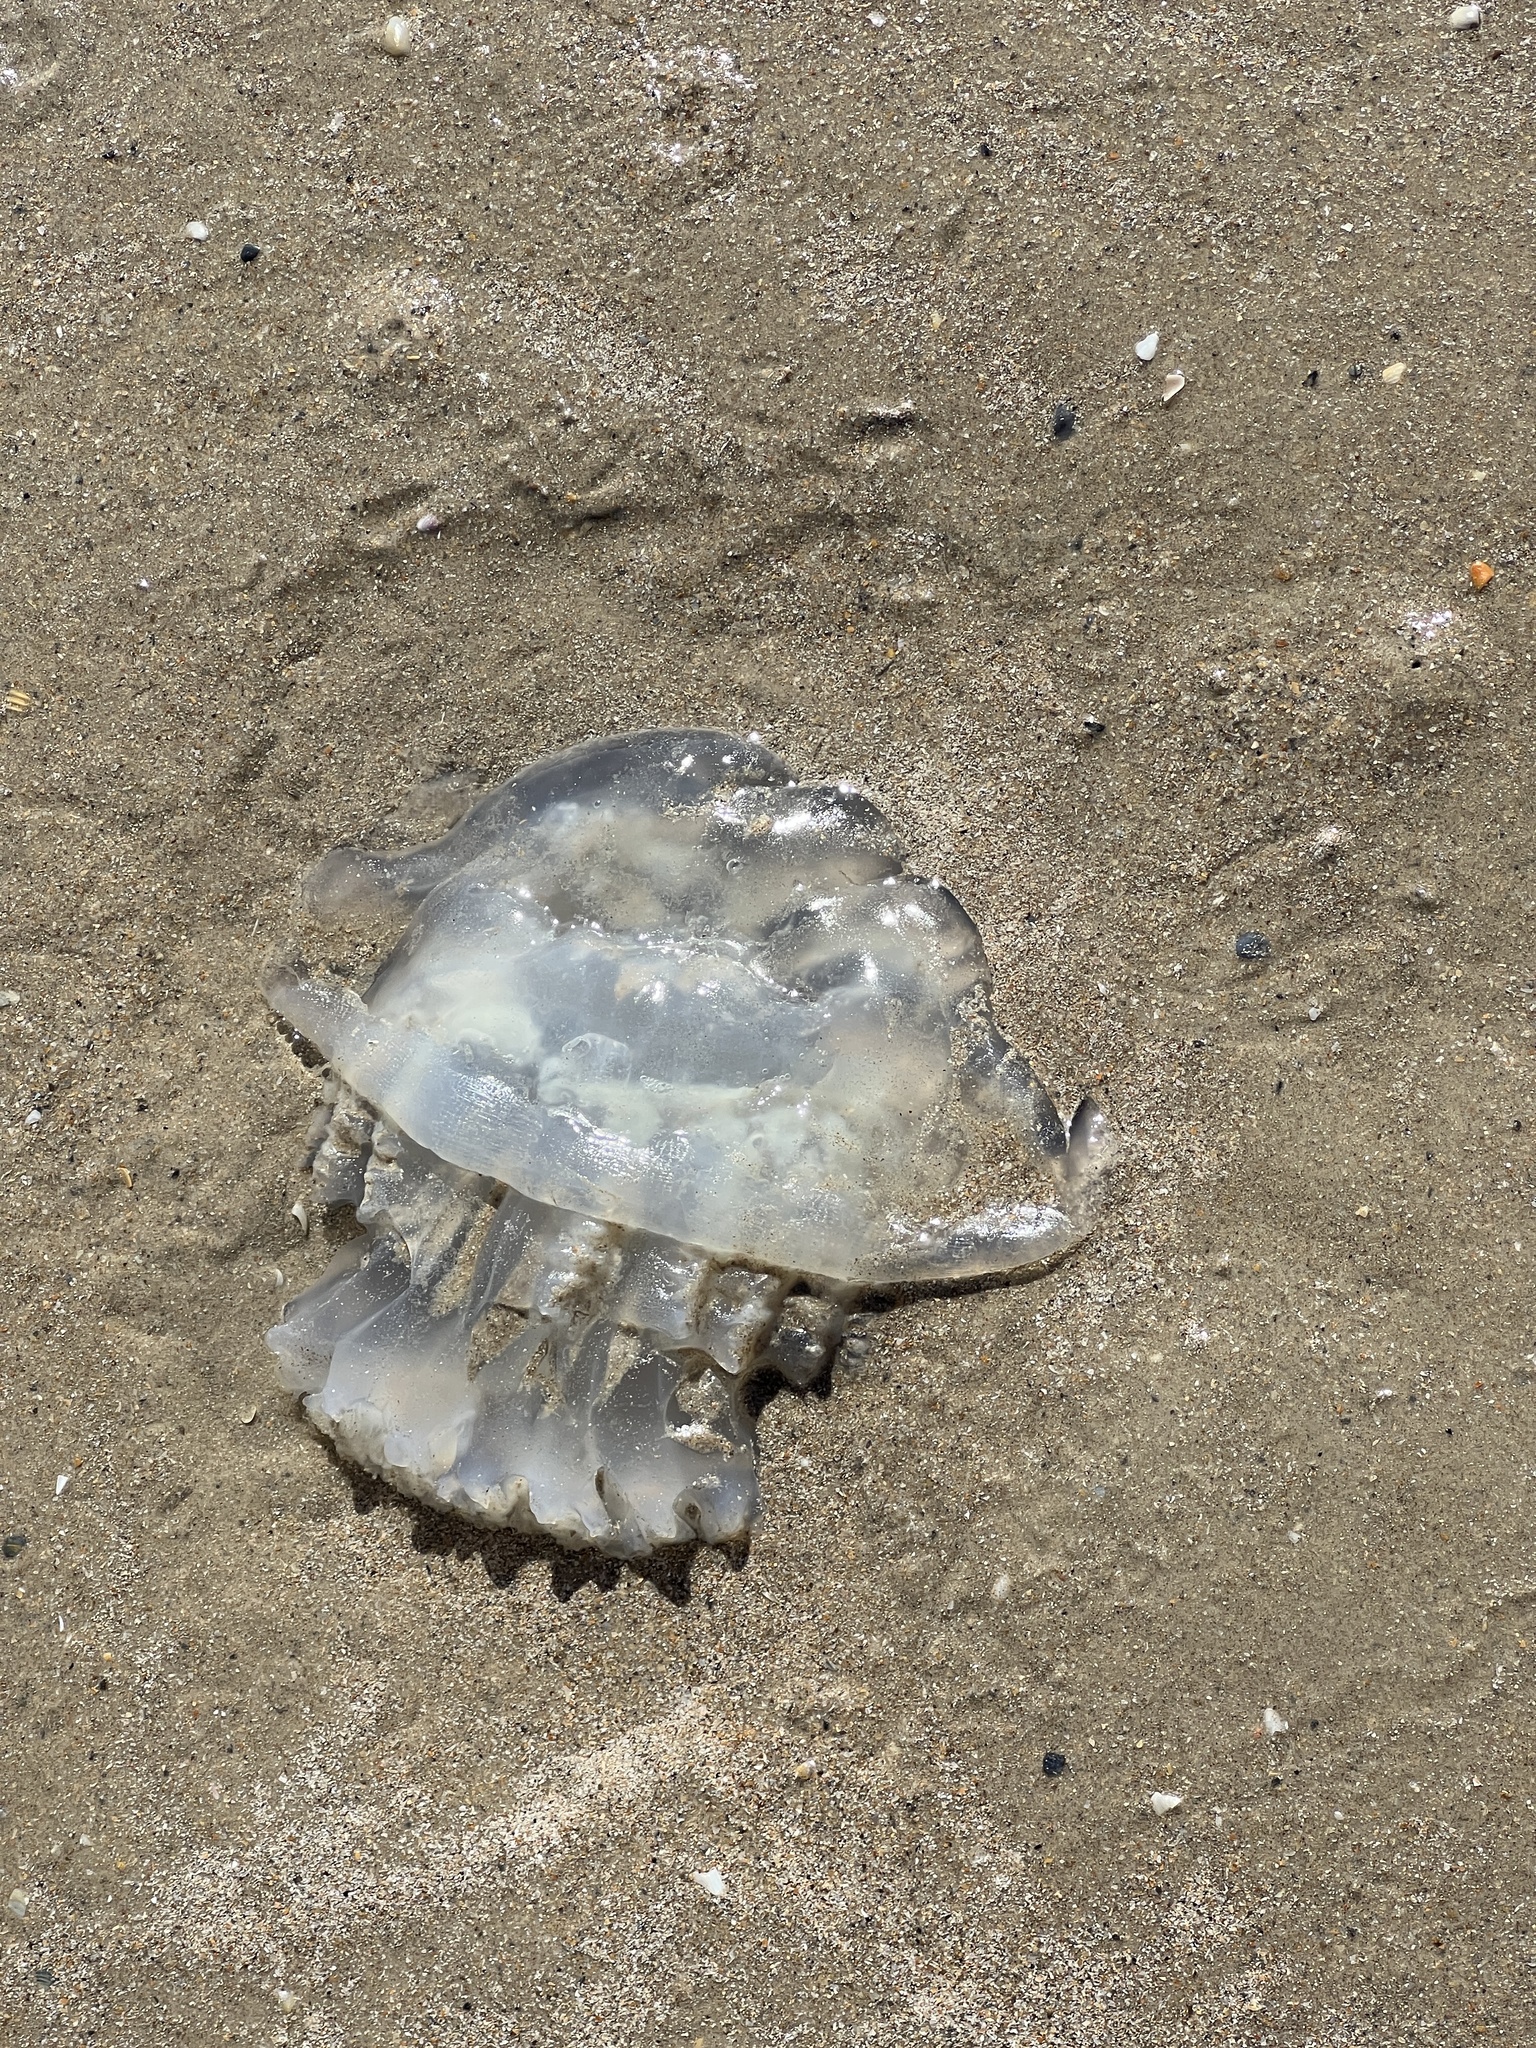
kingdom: Animalia
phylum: Cnidaria
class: Scyphozoa
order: Rhizostomeae
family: Stomolophidae
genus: Stomolophus
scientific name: Stomolophus meleagris
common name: Cabbagehead
